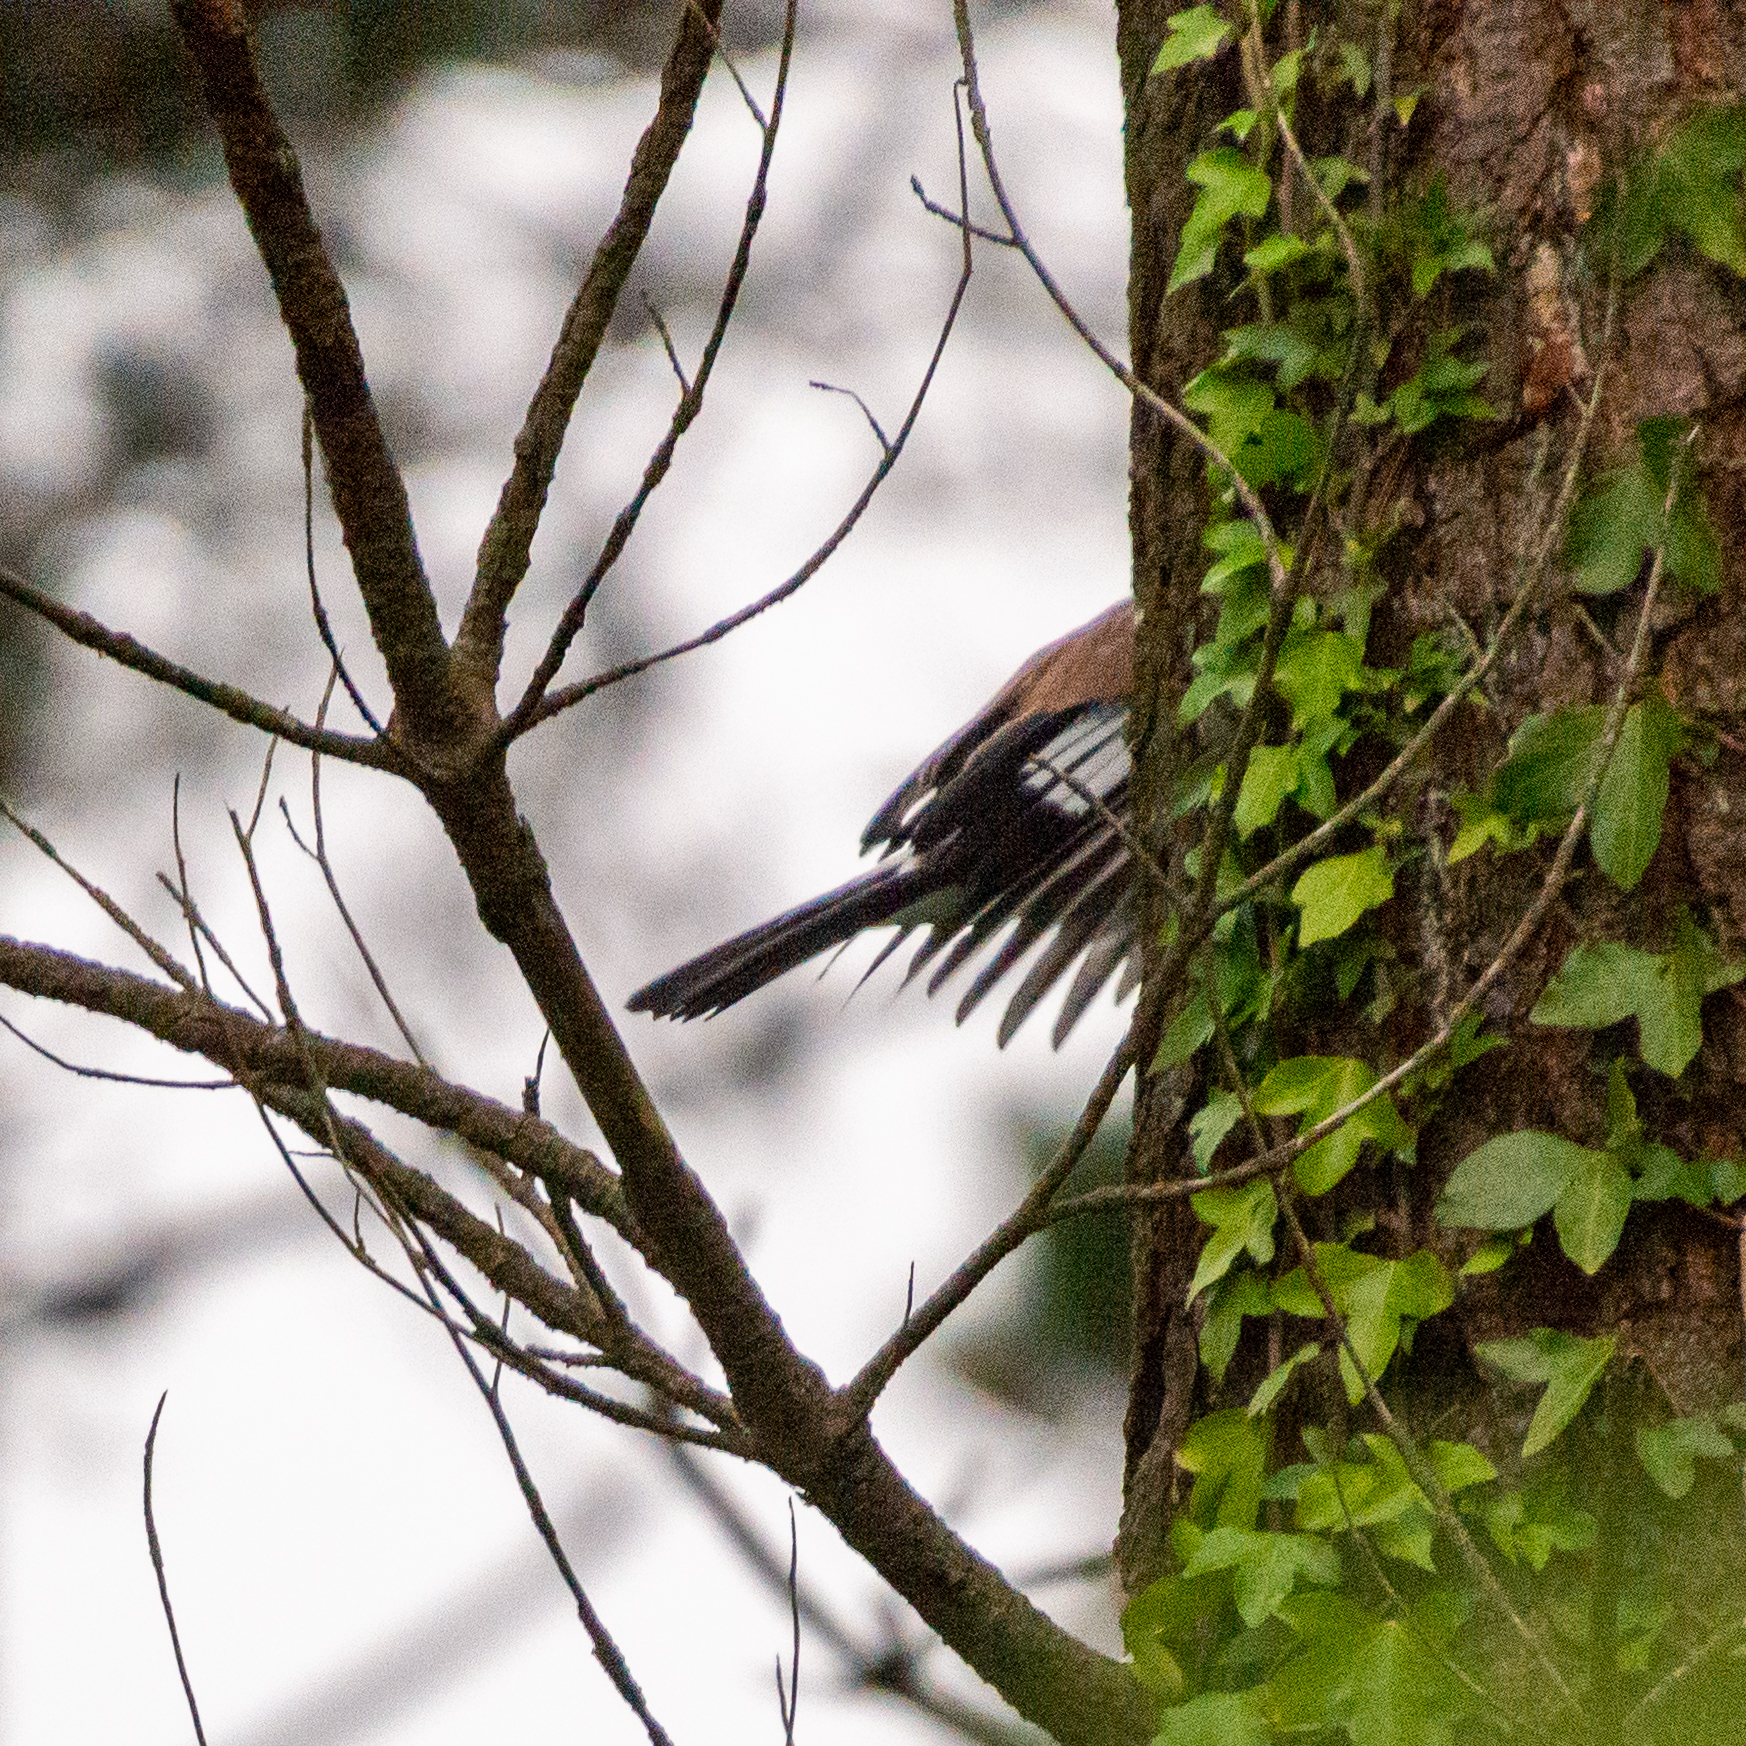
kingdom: Animalia
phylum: Chordata
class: Aves
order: Passeriformes
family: Corvidae
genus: Garrulus
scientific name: Garrulus glandarius
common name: Eurasian jay
